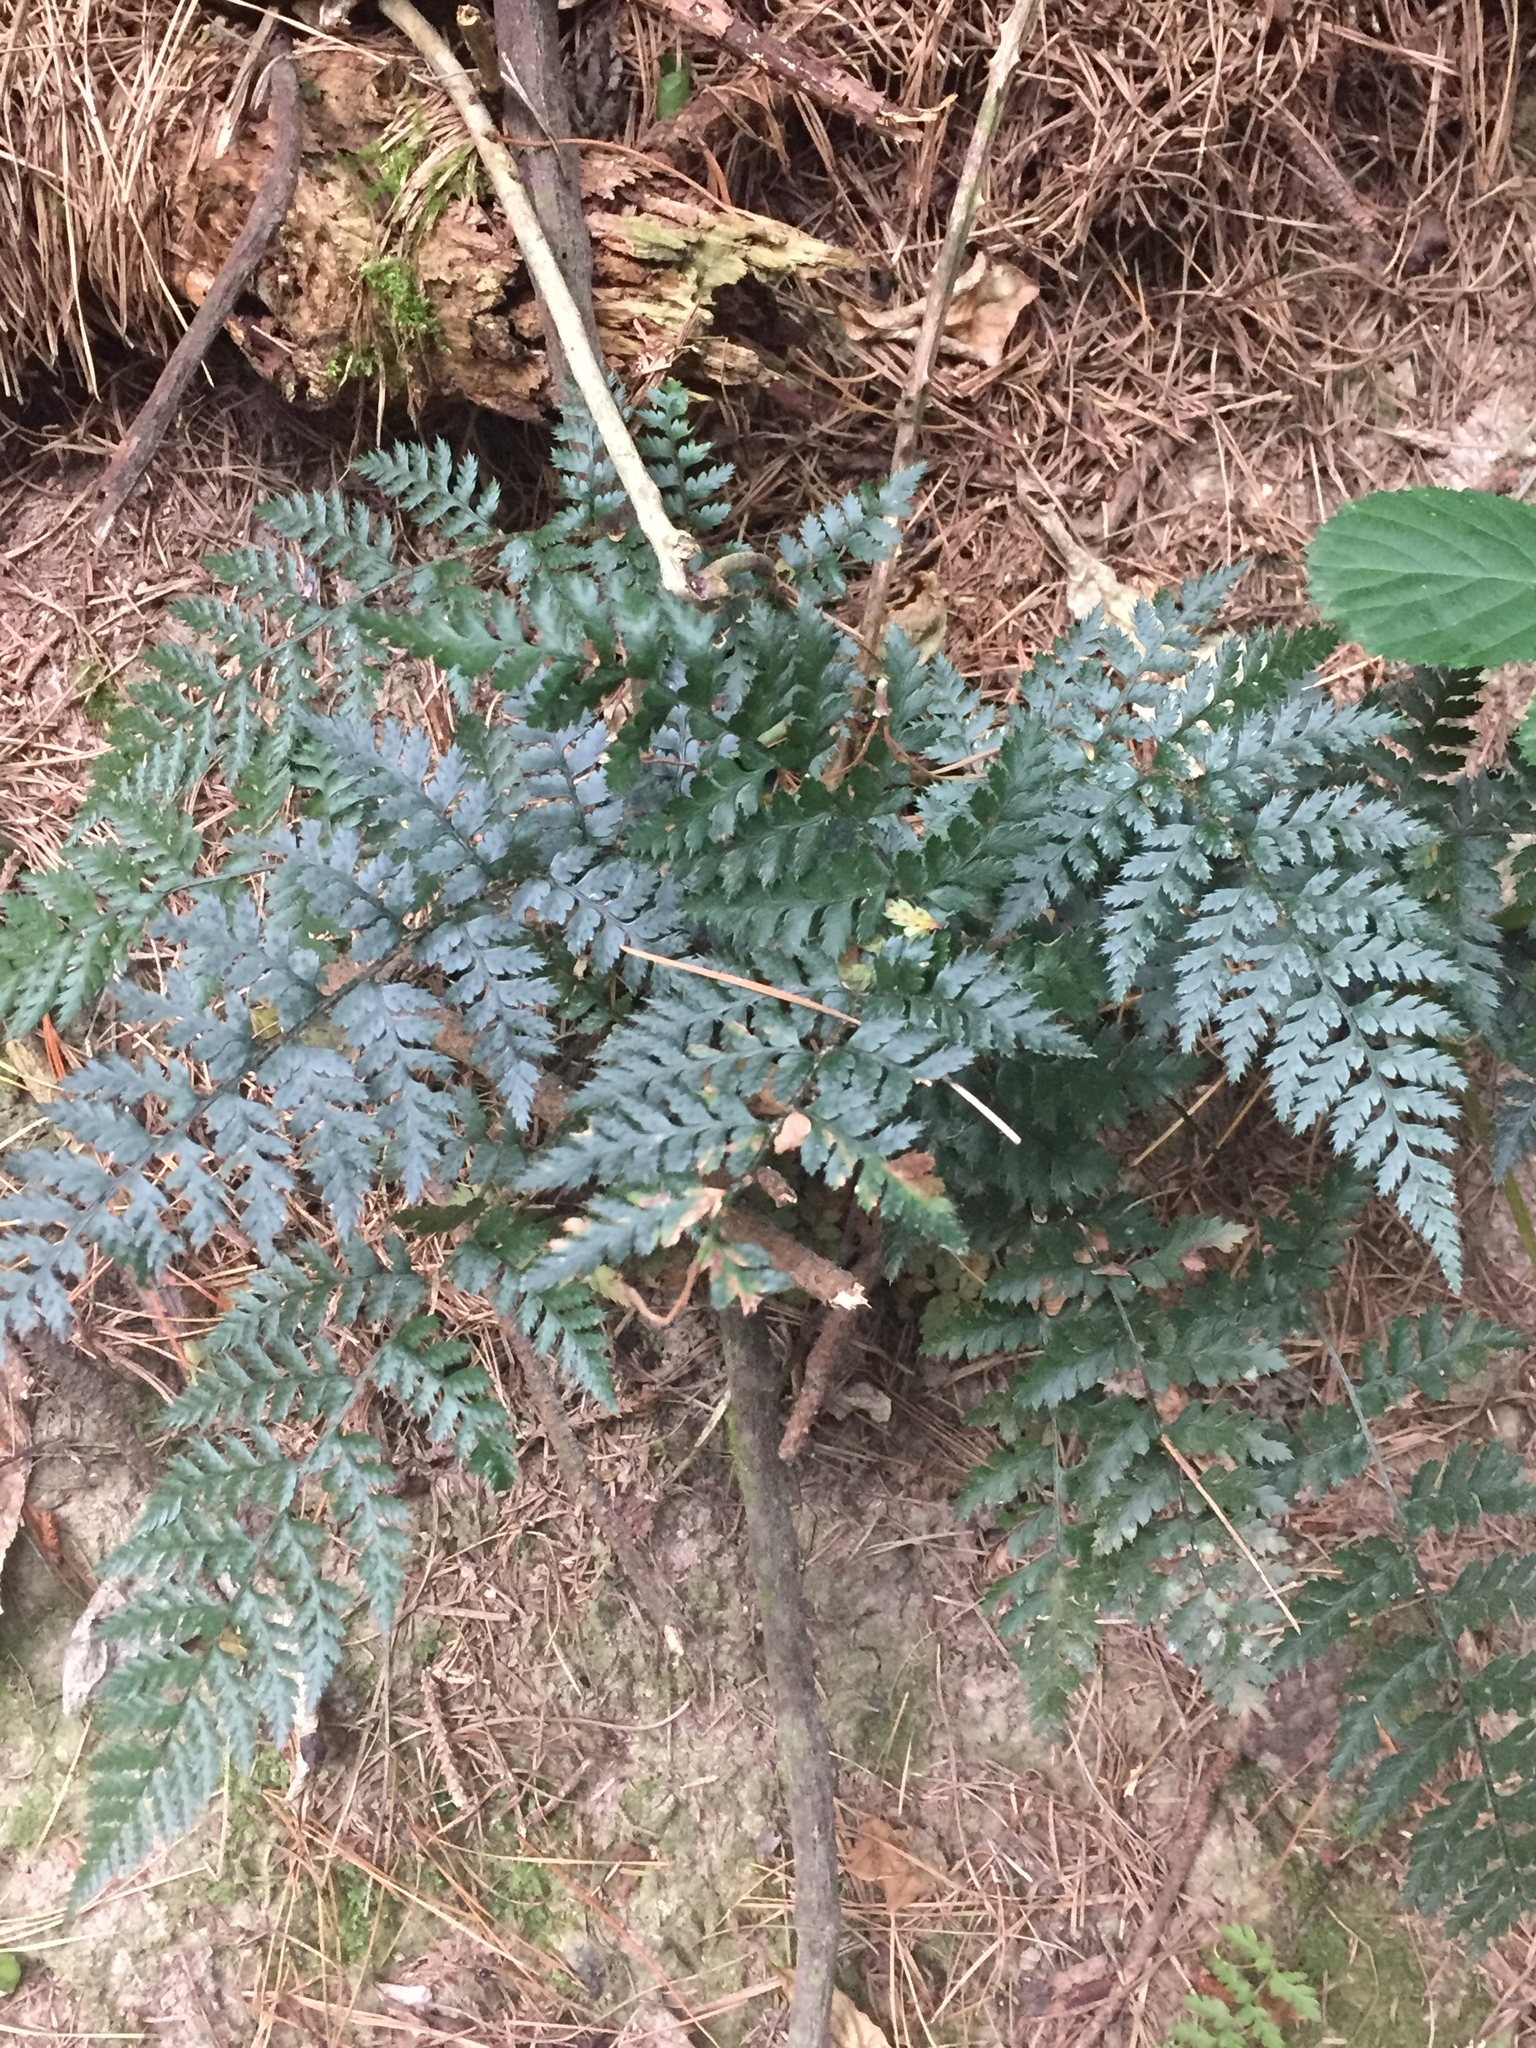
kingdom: Plantae
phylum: Tracheophyta
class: Polypodiopsida
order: Polypodiales
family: Dryopteridaceae
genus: Polystichum
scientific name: Polystichum oculatum
